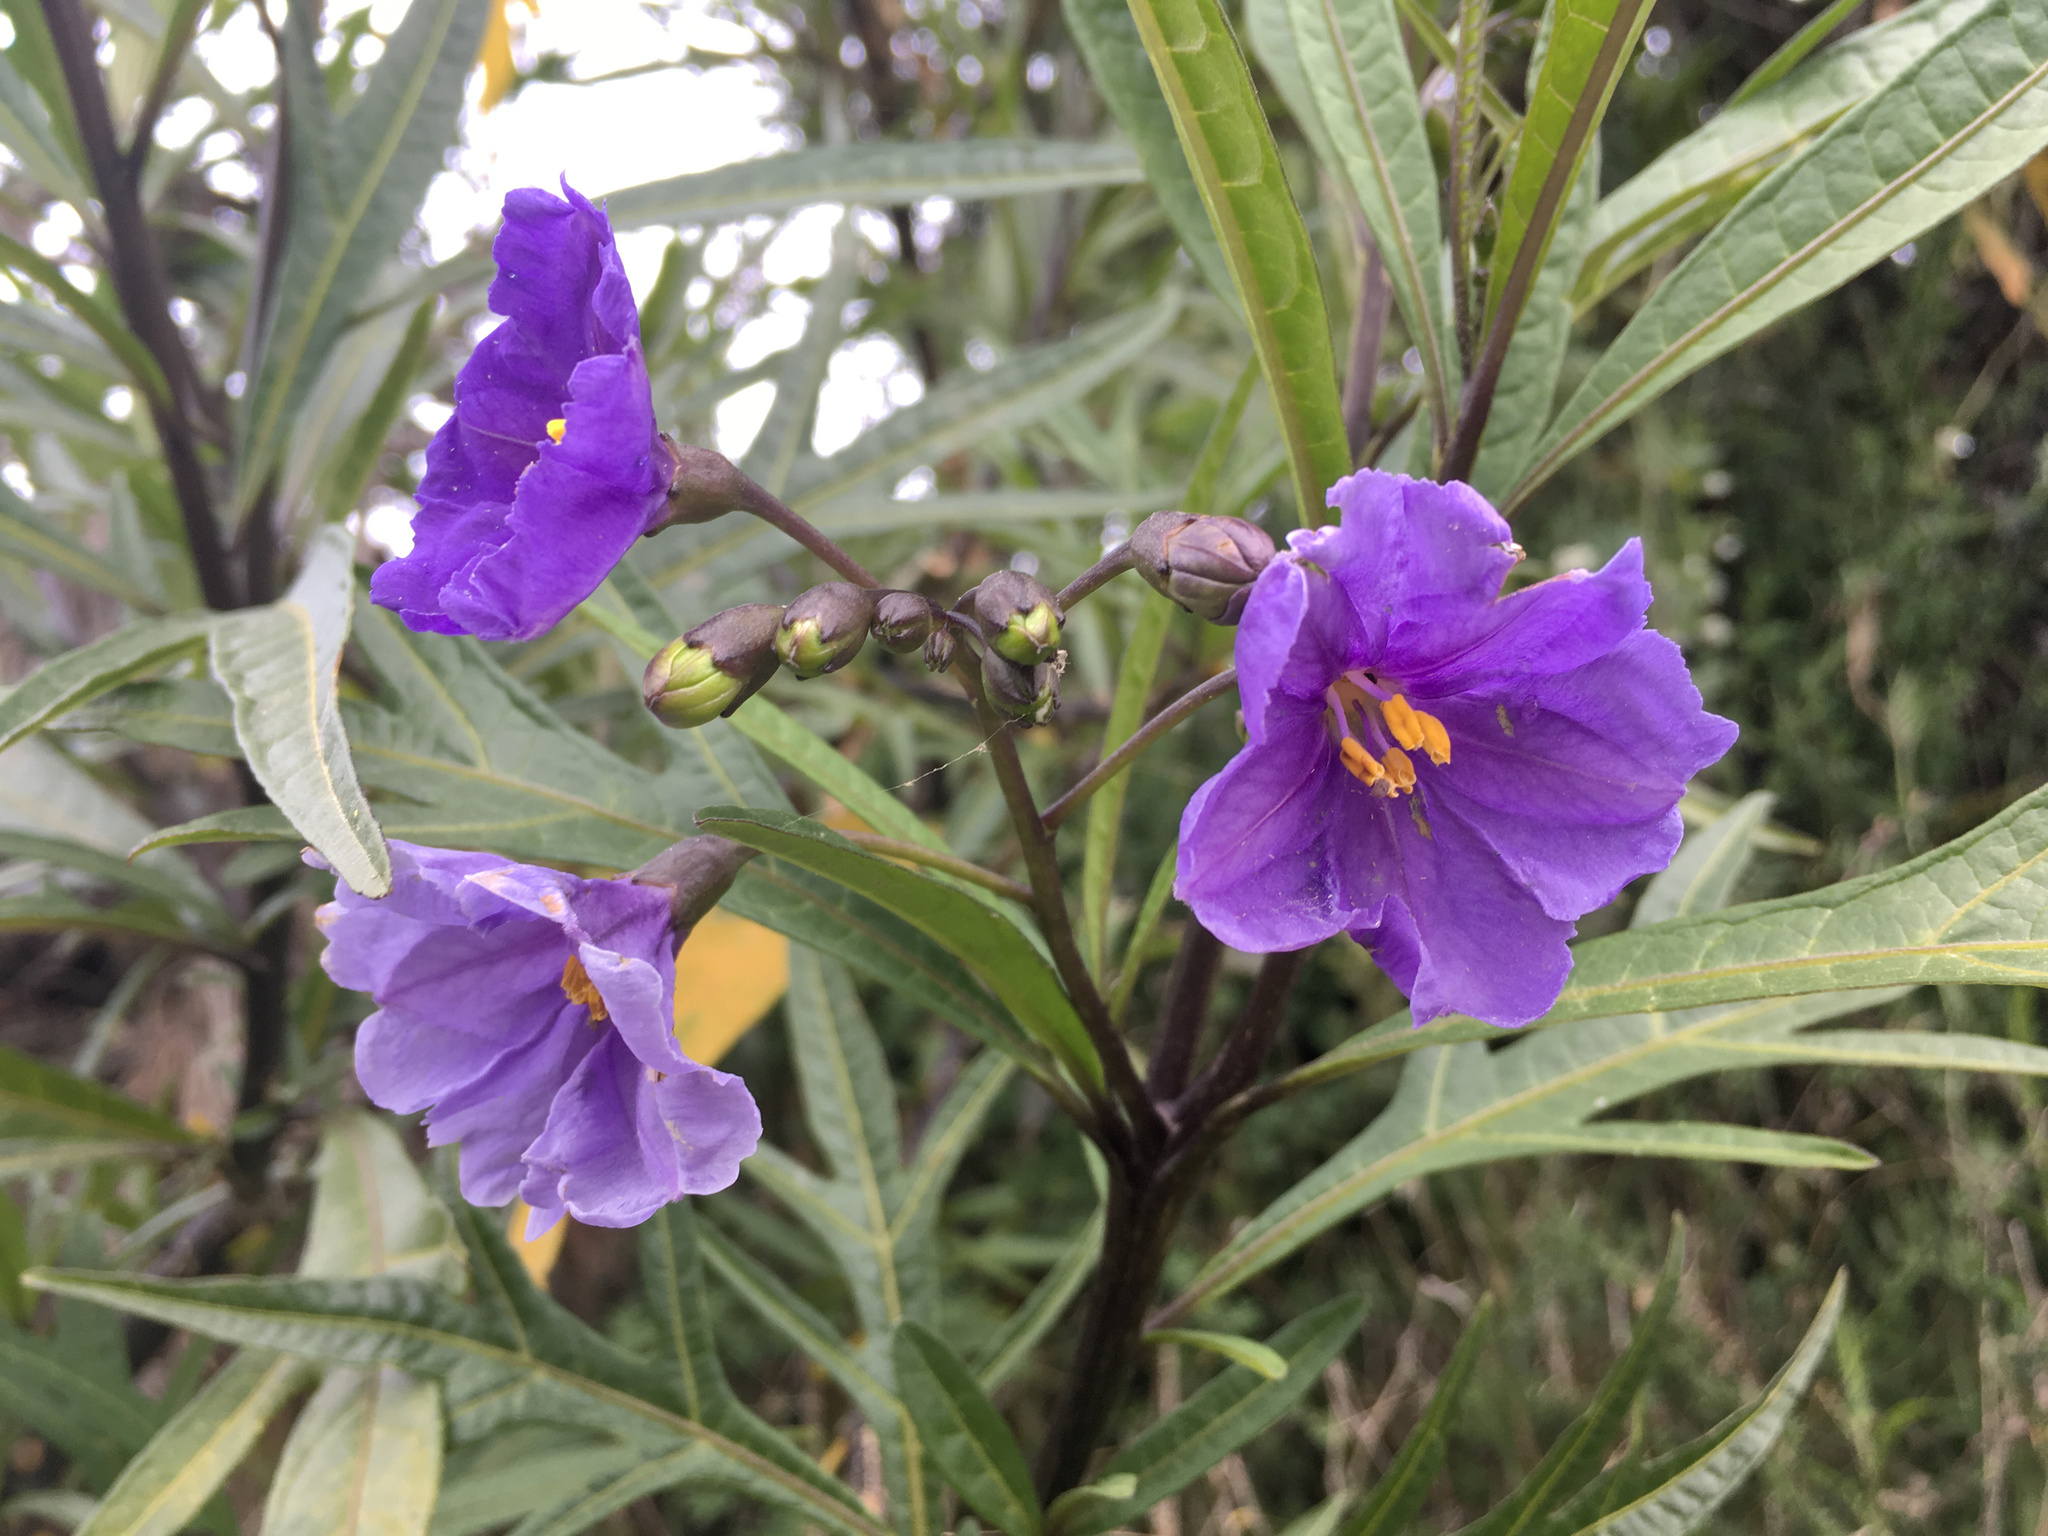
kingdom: Plantae
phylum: Tracheophyta
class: Magnoliopsida
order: Solanales
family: Solanaceae
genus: Solanum
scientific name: Solanum laciniatum
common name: Kangaroo-apple
